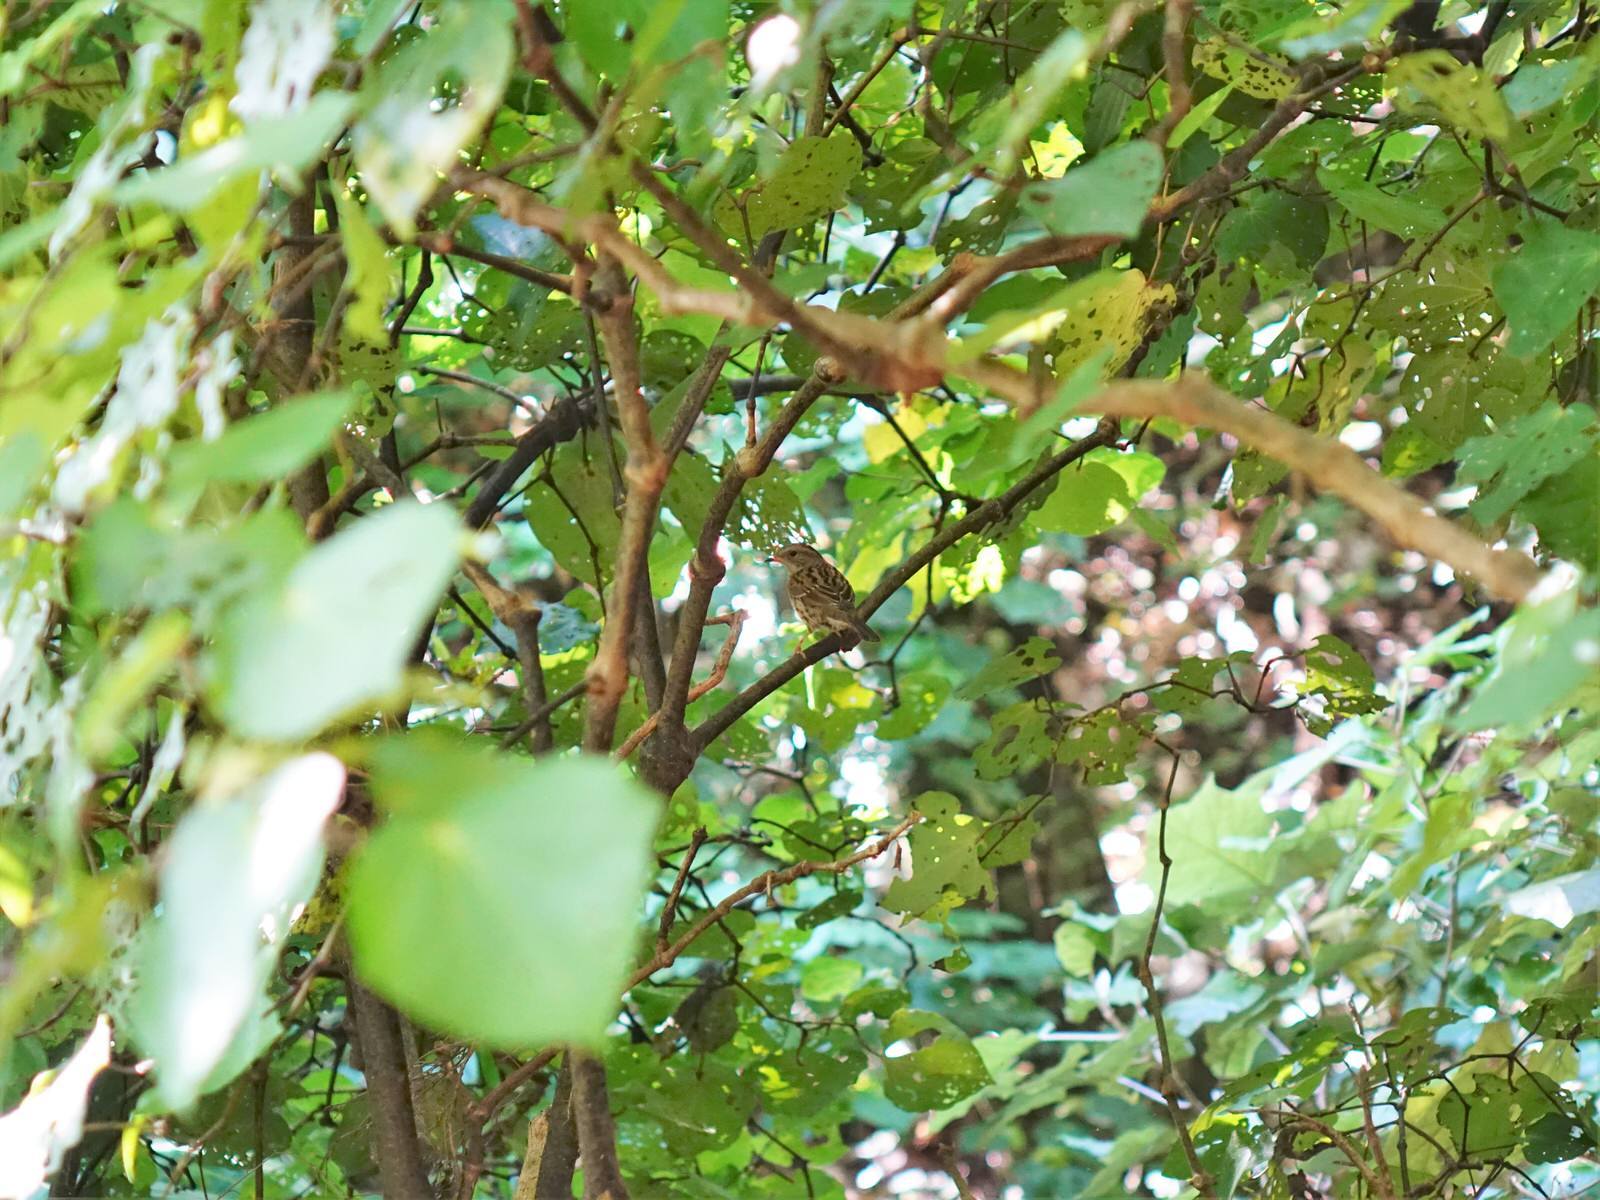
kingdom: Animalia
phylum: Chordata
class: Aves
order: Passeriformes
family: Prunellidae
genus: Prunella
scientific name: Prunella modularis
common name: Dunnock
